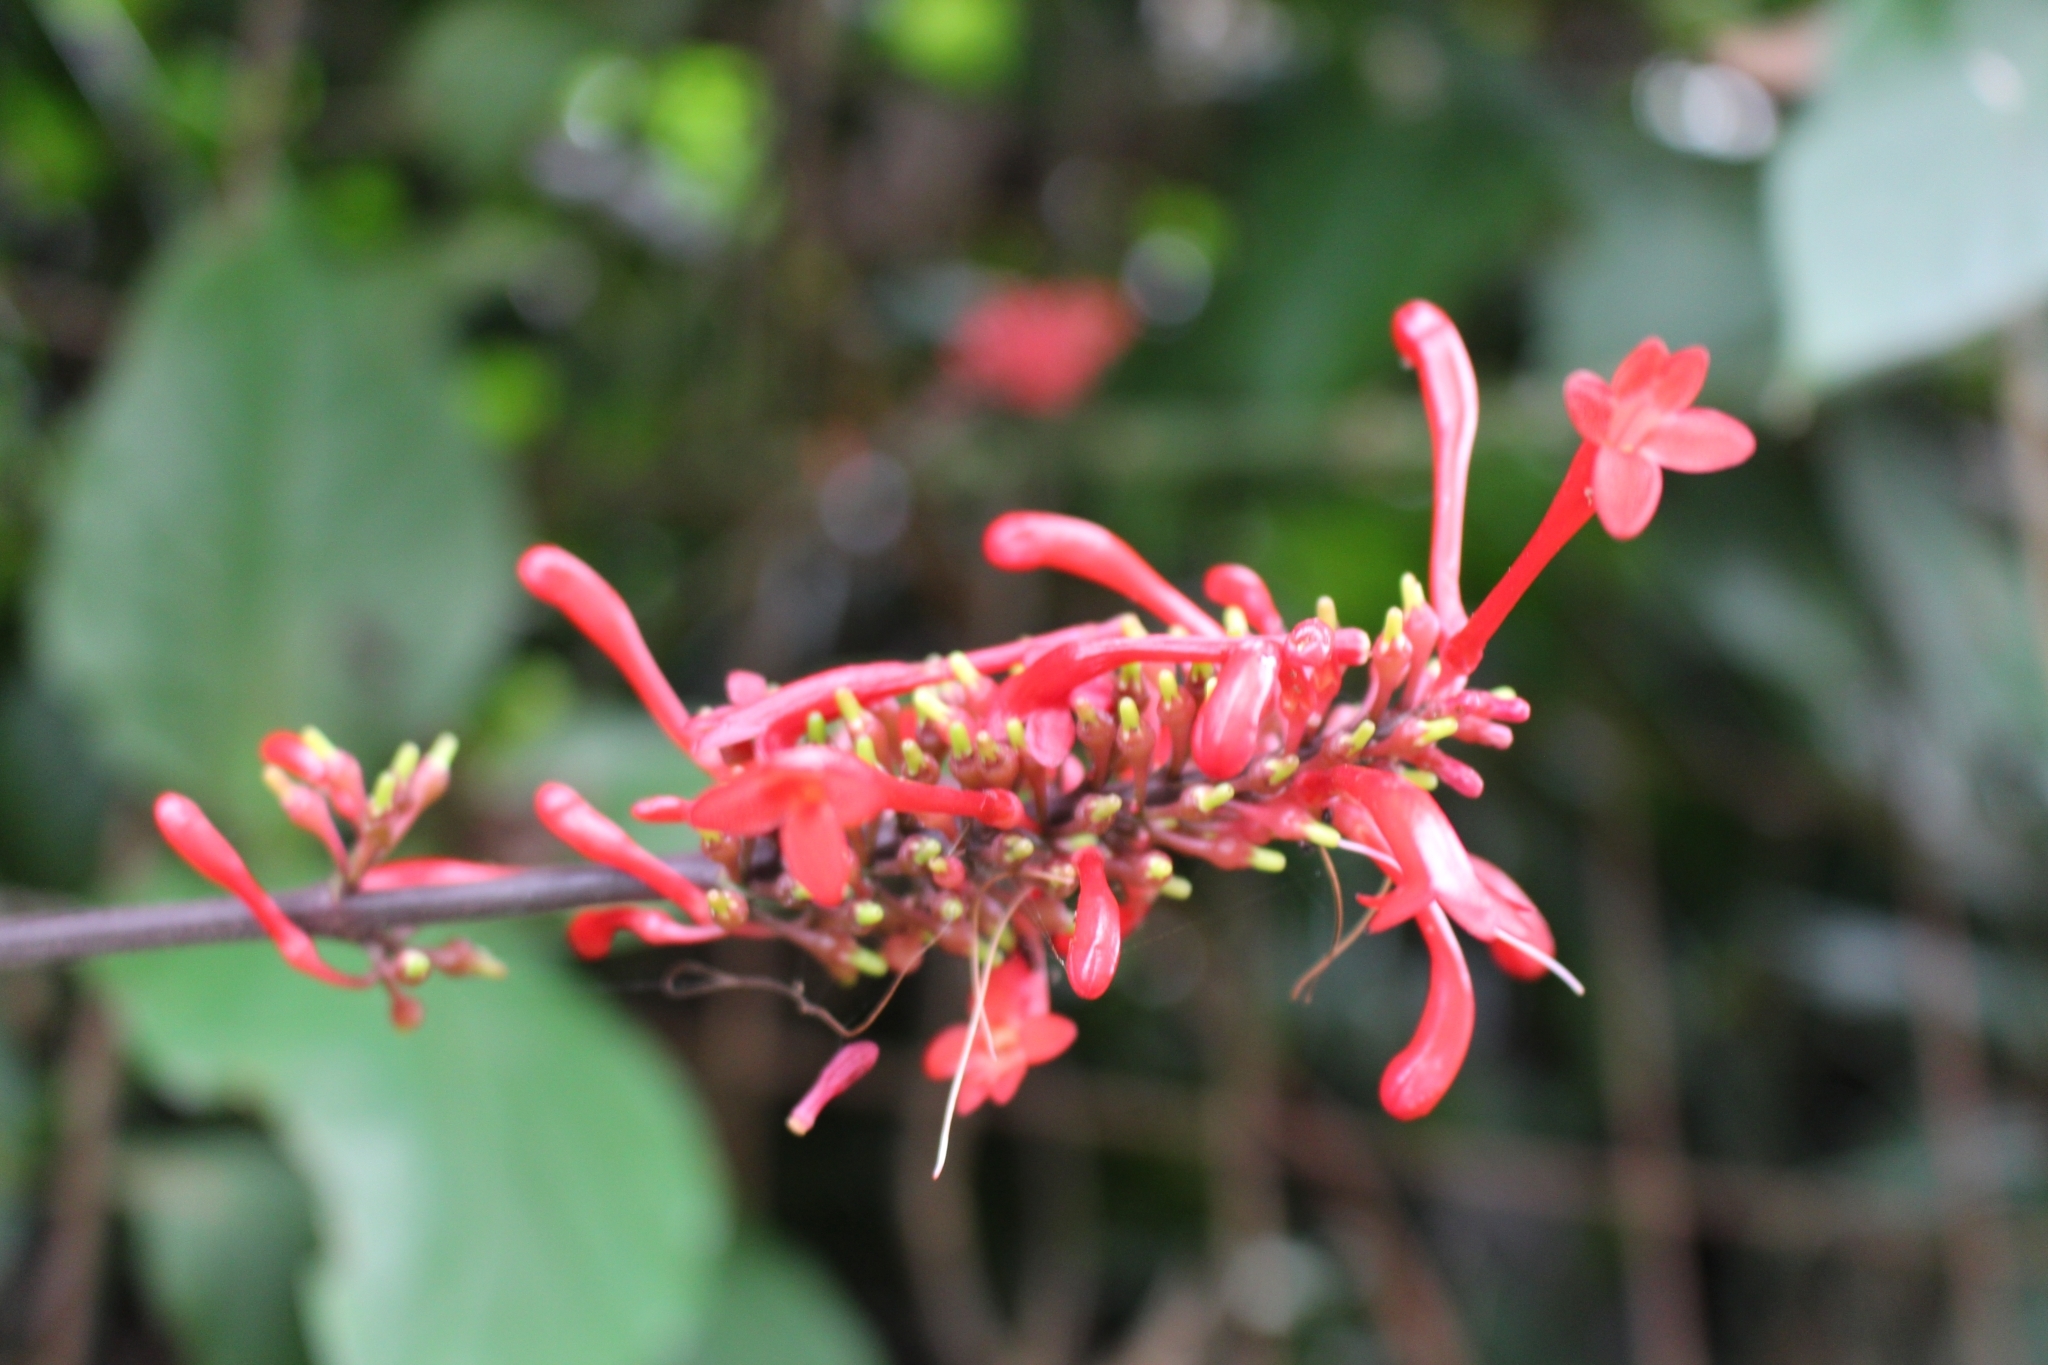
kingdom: Plantae
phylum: Tracheophyta
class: Magnoliopsida
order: Lamiales
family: Acanthaceae
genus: Odontonema
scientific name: Odontonema tubaeforme
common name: Firespike
